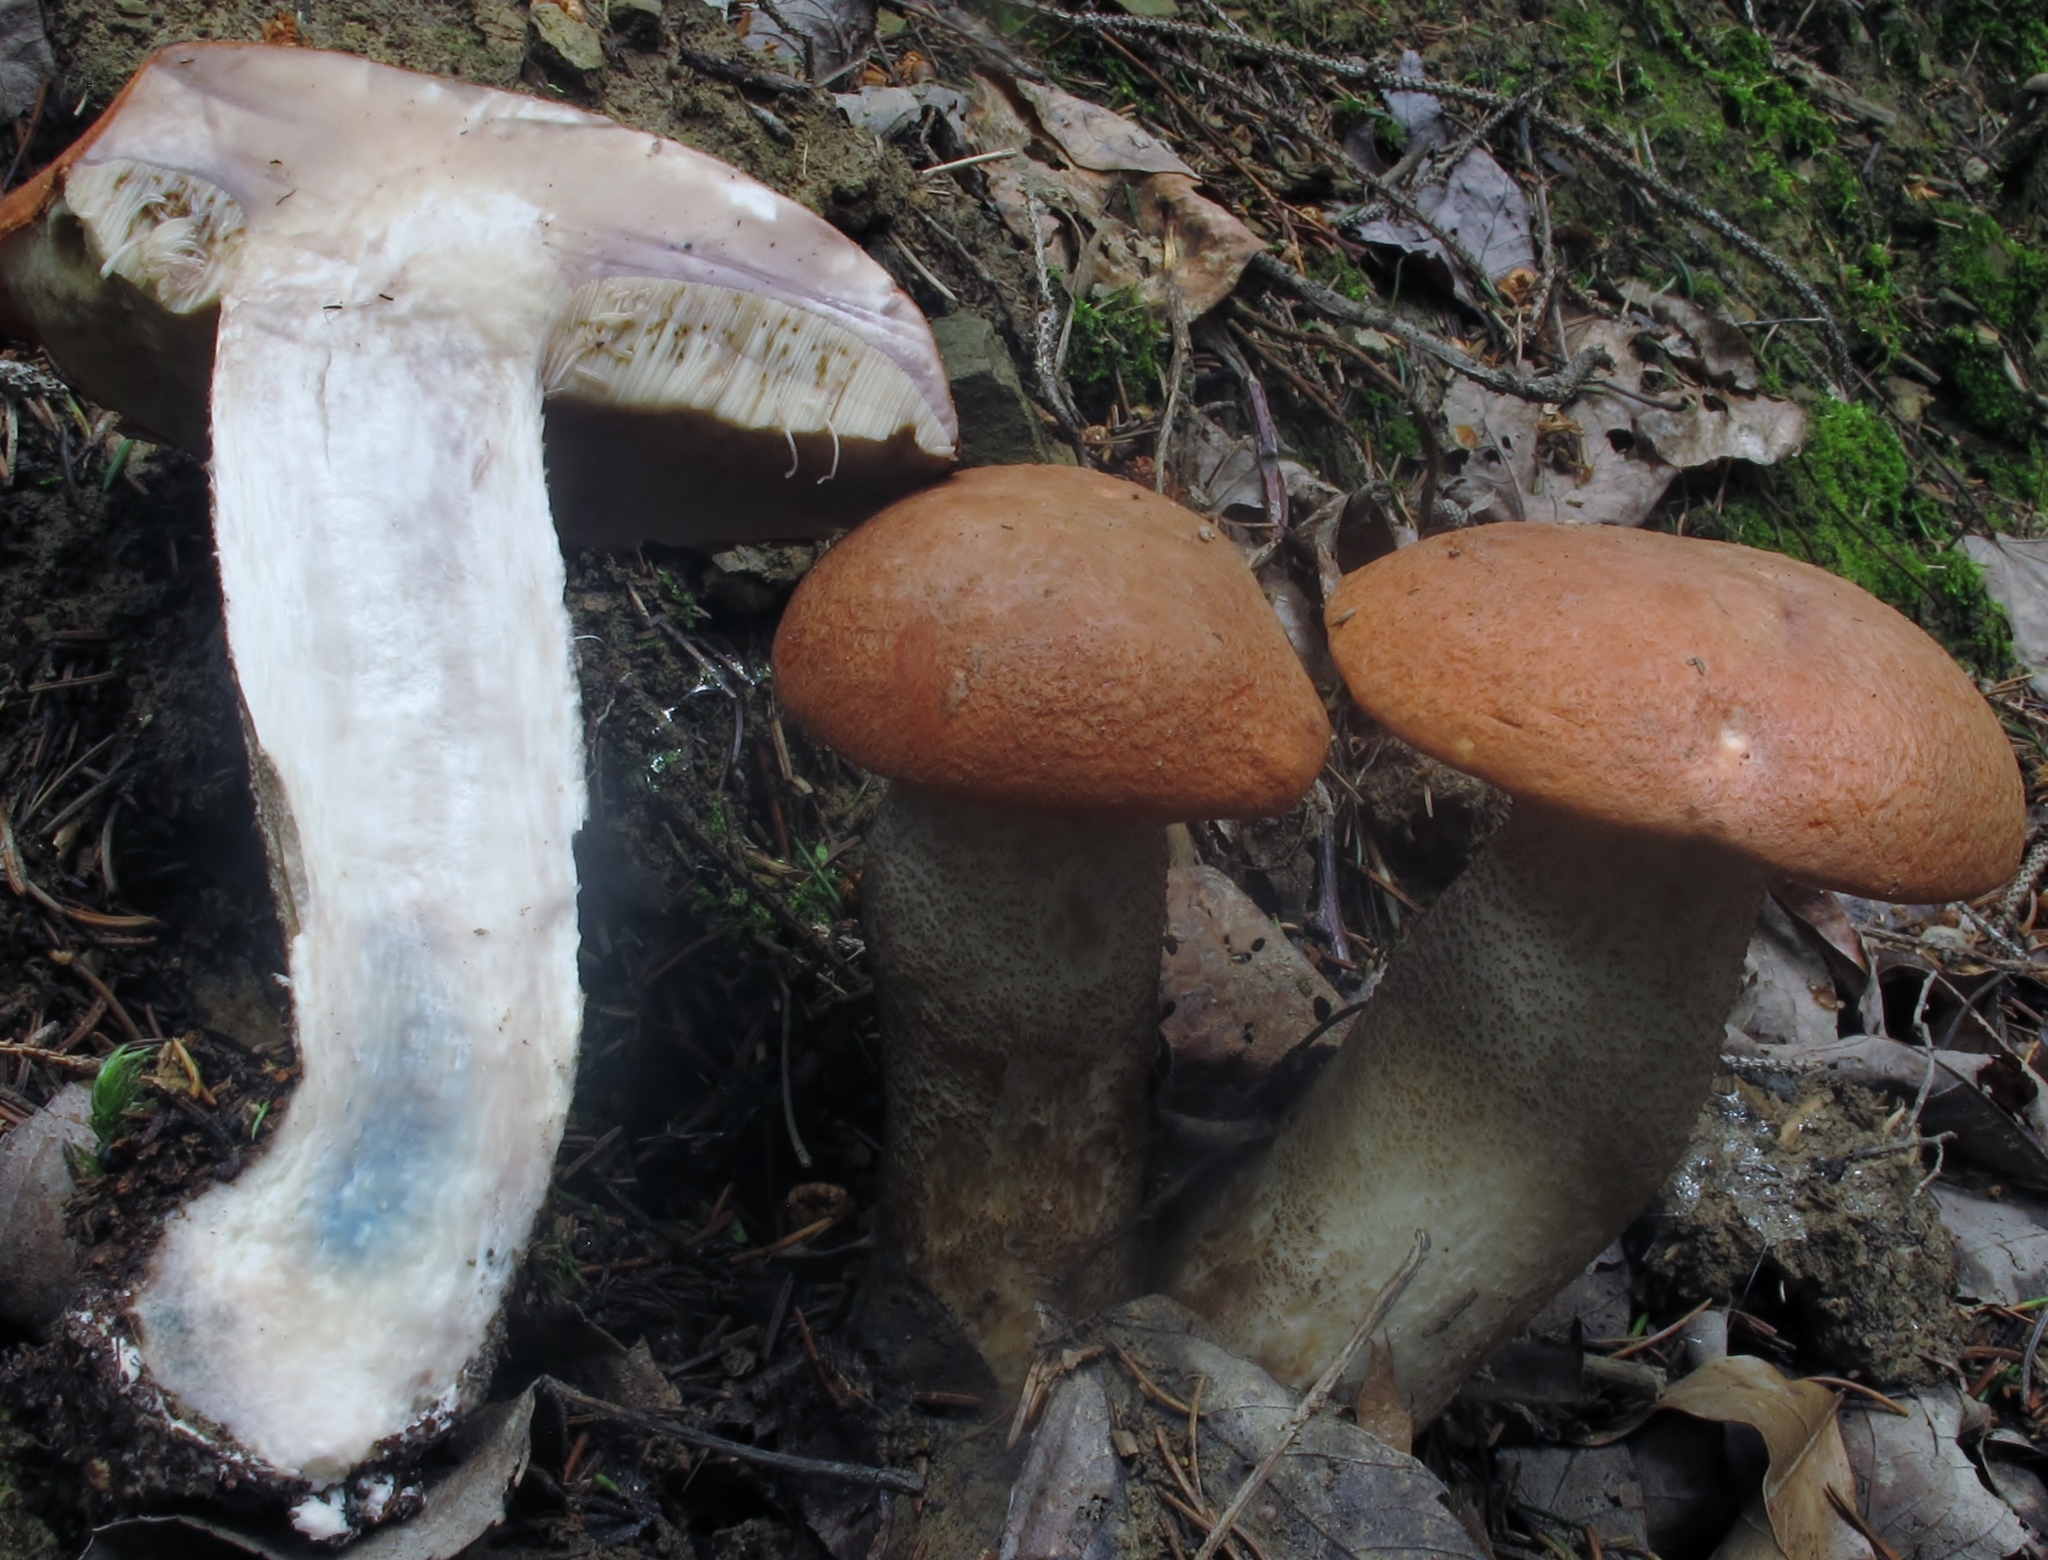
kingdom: Fungi
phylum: Basidiomycota
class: Agaricomycetes
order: Boletales
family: Boletaceae
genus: Leccinum
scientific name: Leccinum aurantiacum
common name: Orange bolete
